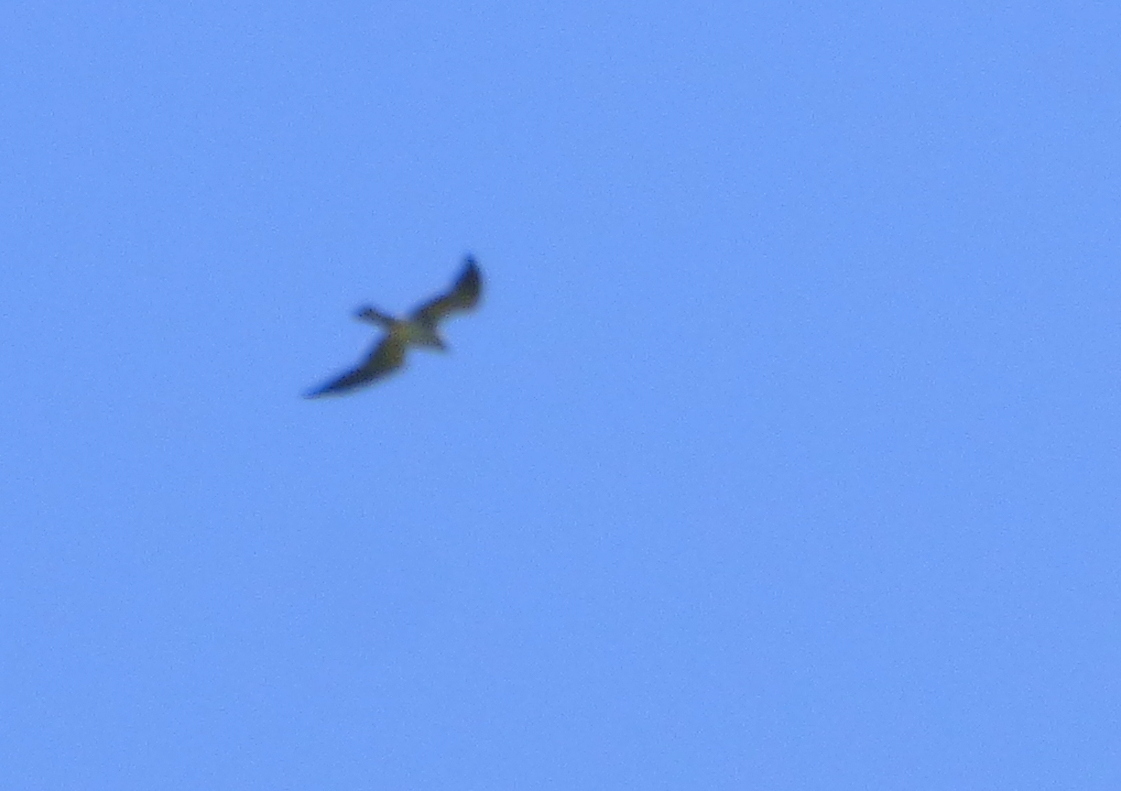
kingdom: Animalia
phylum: Chordata
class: Aves
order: Accipitriformes
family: Accipitridae
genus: Ictinia
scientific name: Ictinia mississippiensis
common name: Mississippi kite
